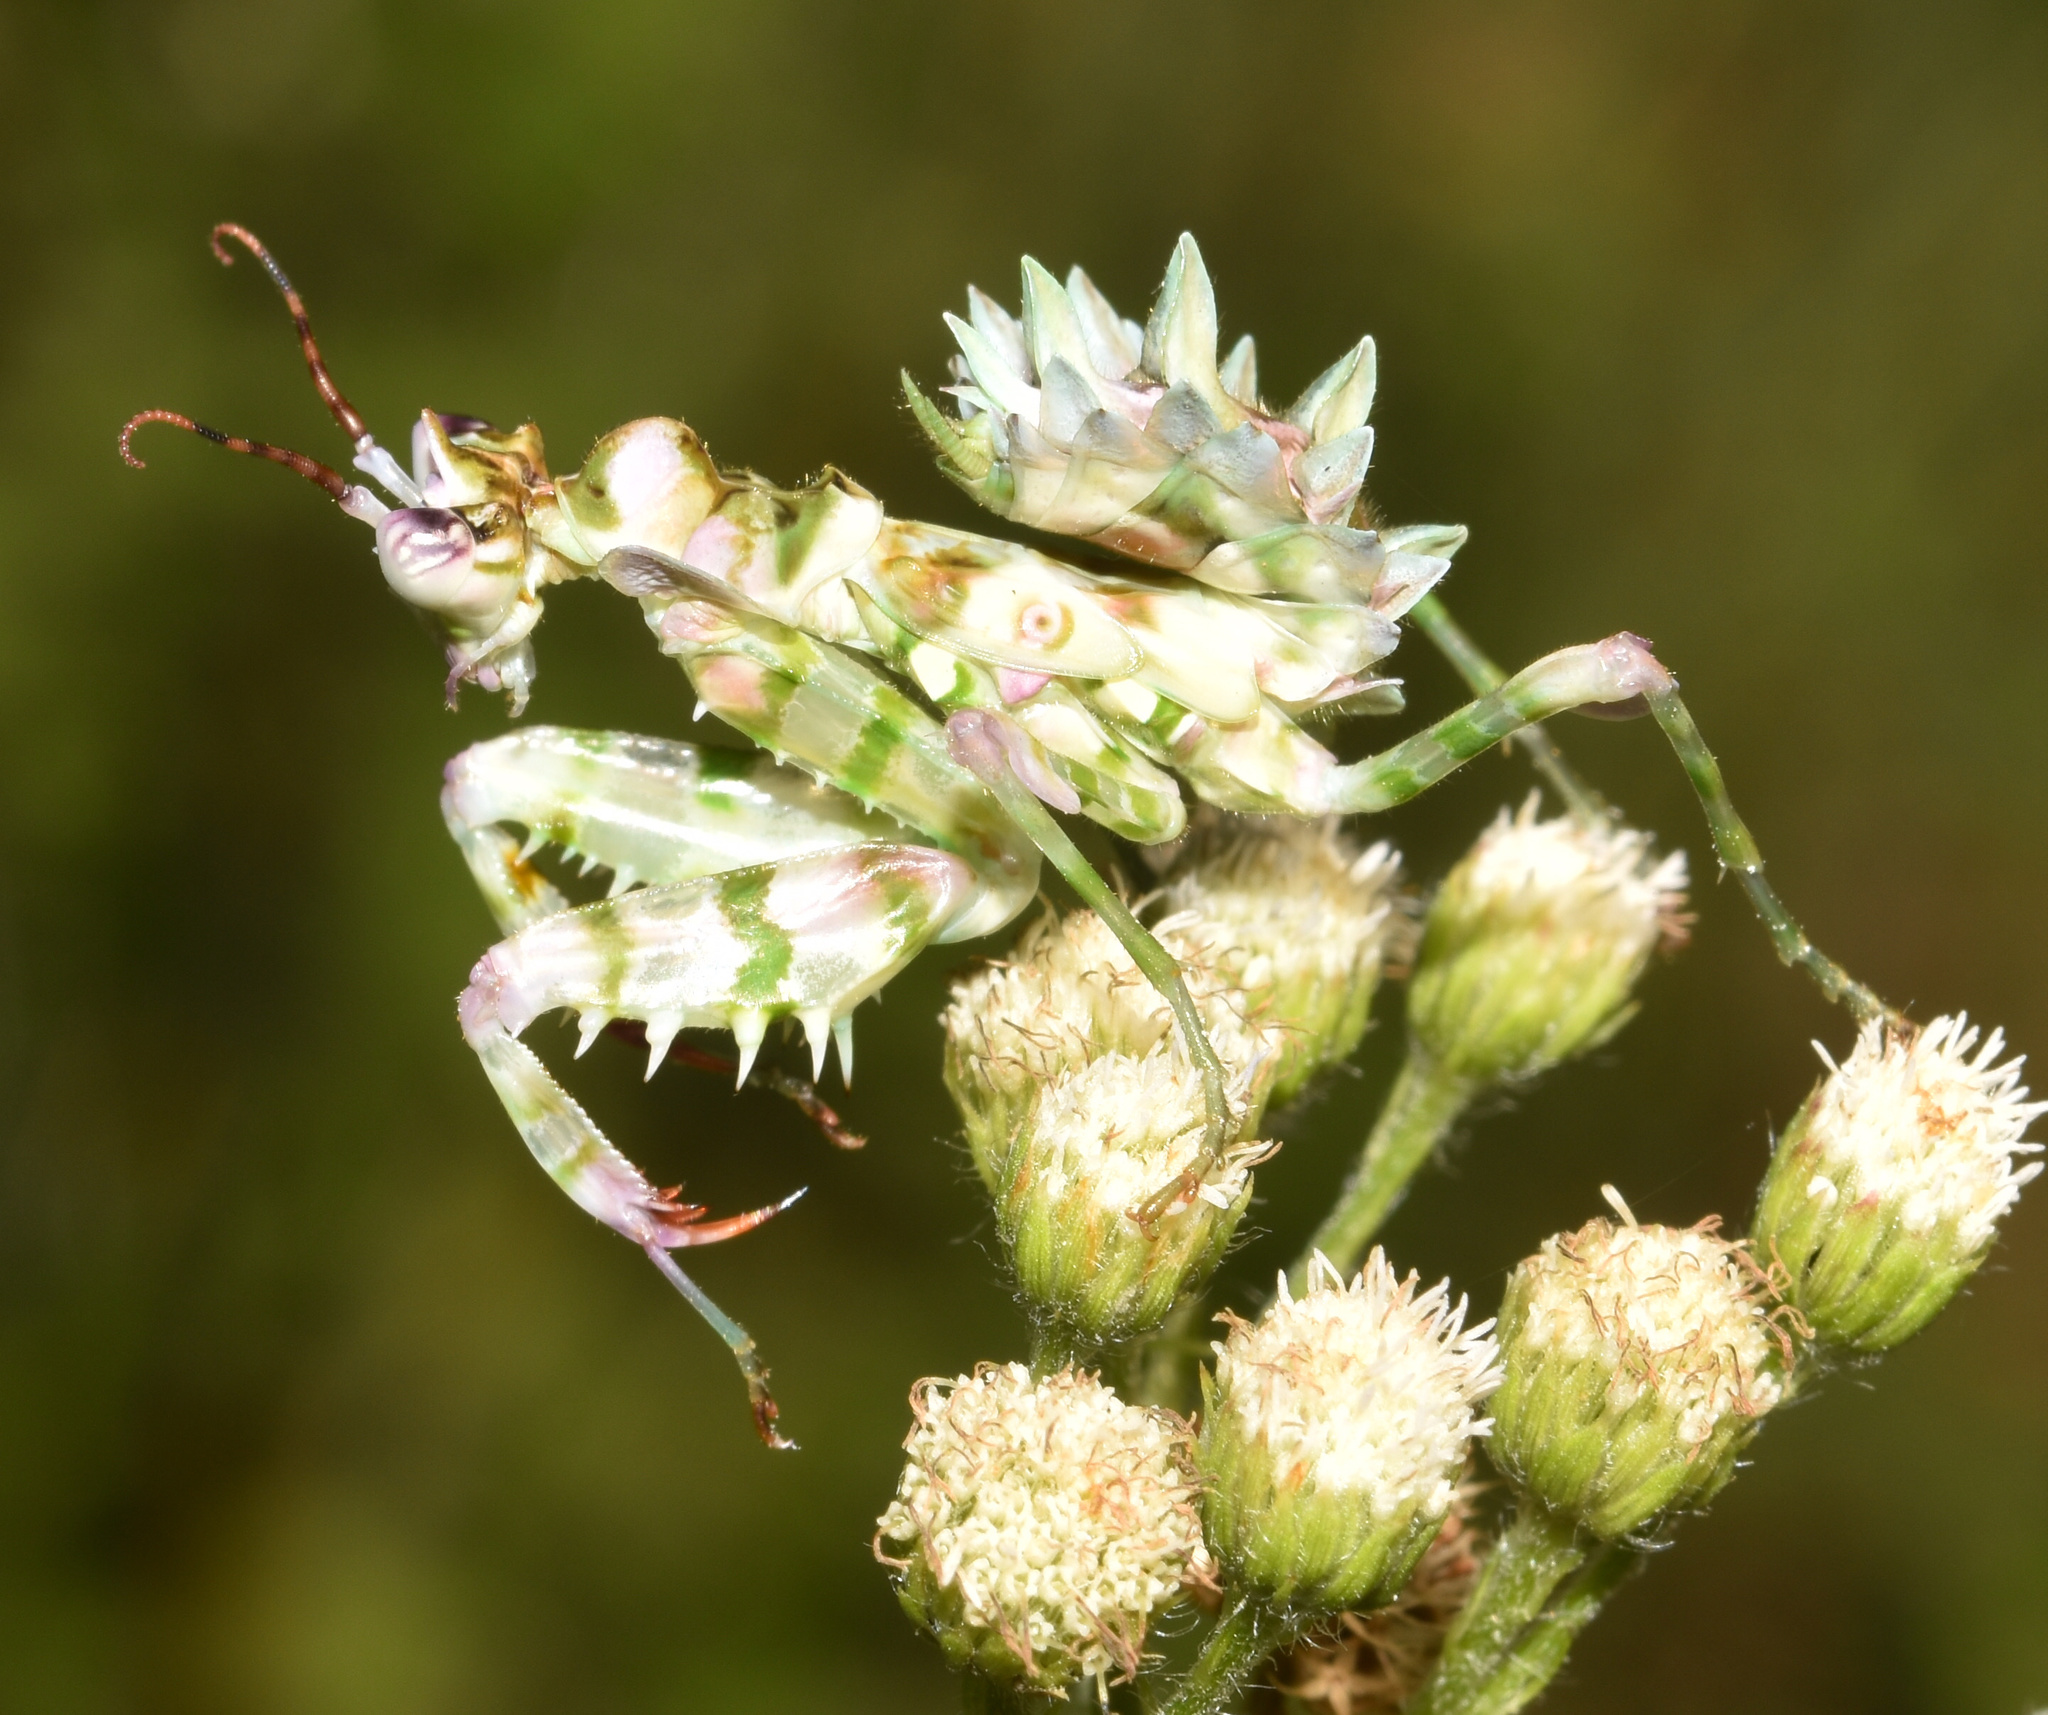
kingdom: Animalia
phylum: Arthropoda
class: Insecta
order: Mantodea
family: Hymenopodidae
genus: Pseudocreobotra
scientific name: Pseudocreobotra wahlbergi
